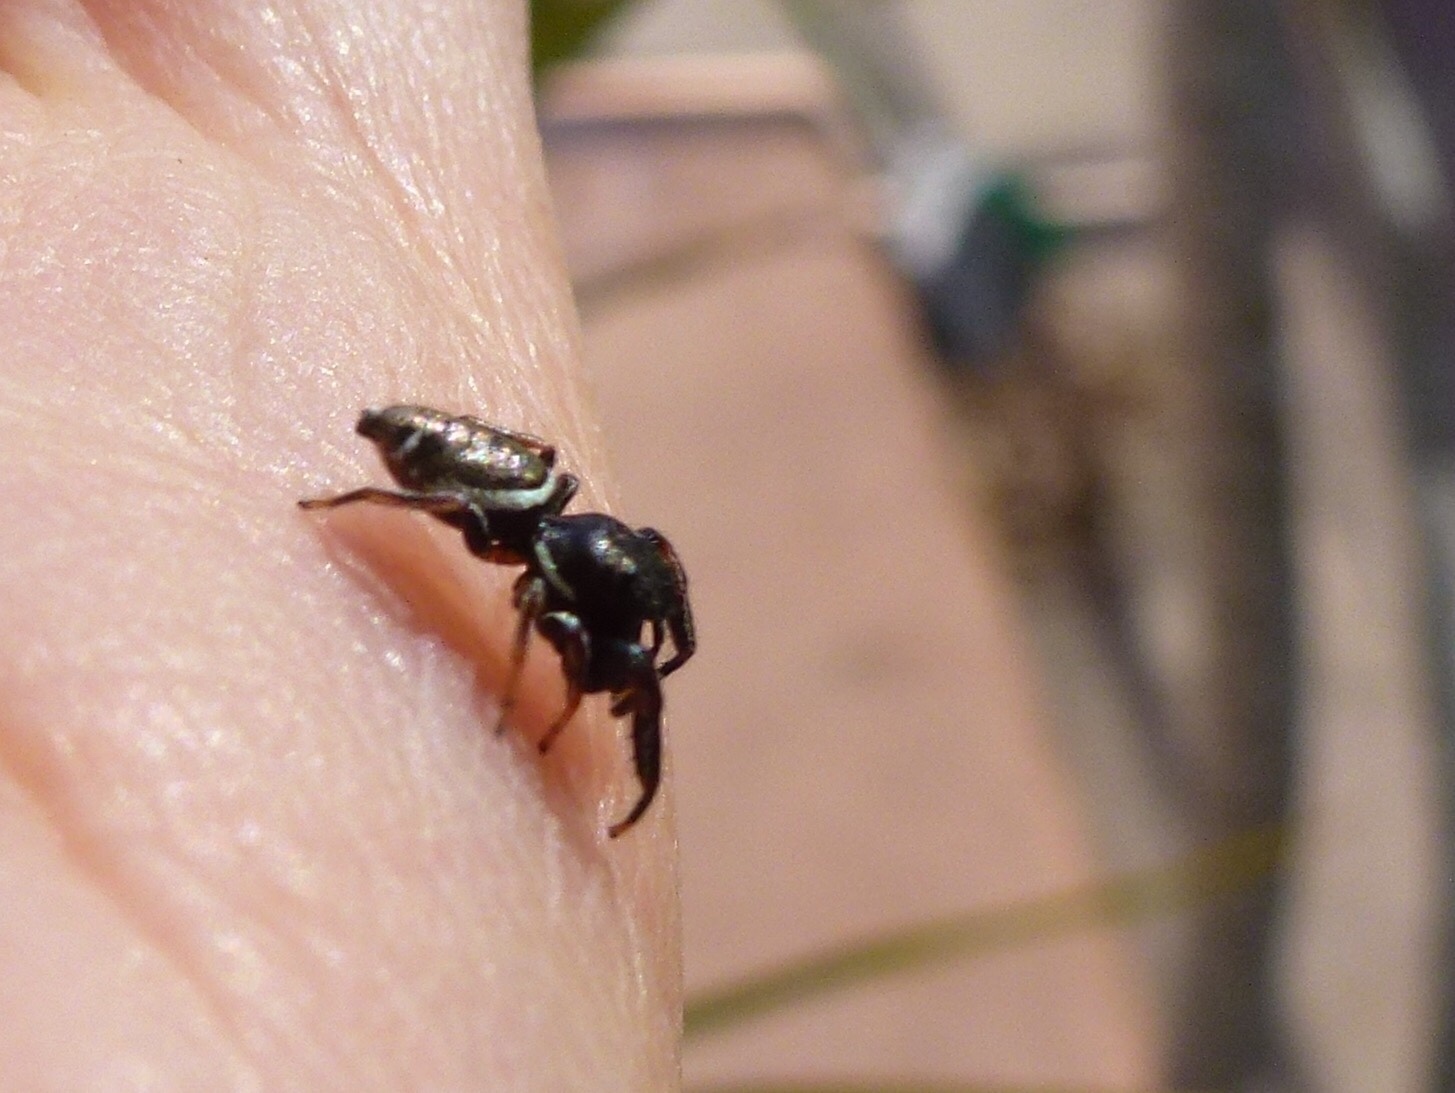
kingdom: Animalia
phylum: Arthropoda
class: Arachnida
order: Araneae
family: Salticidae
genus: Sassacus
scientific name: Sassacus vitis
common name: Jumping spiders
